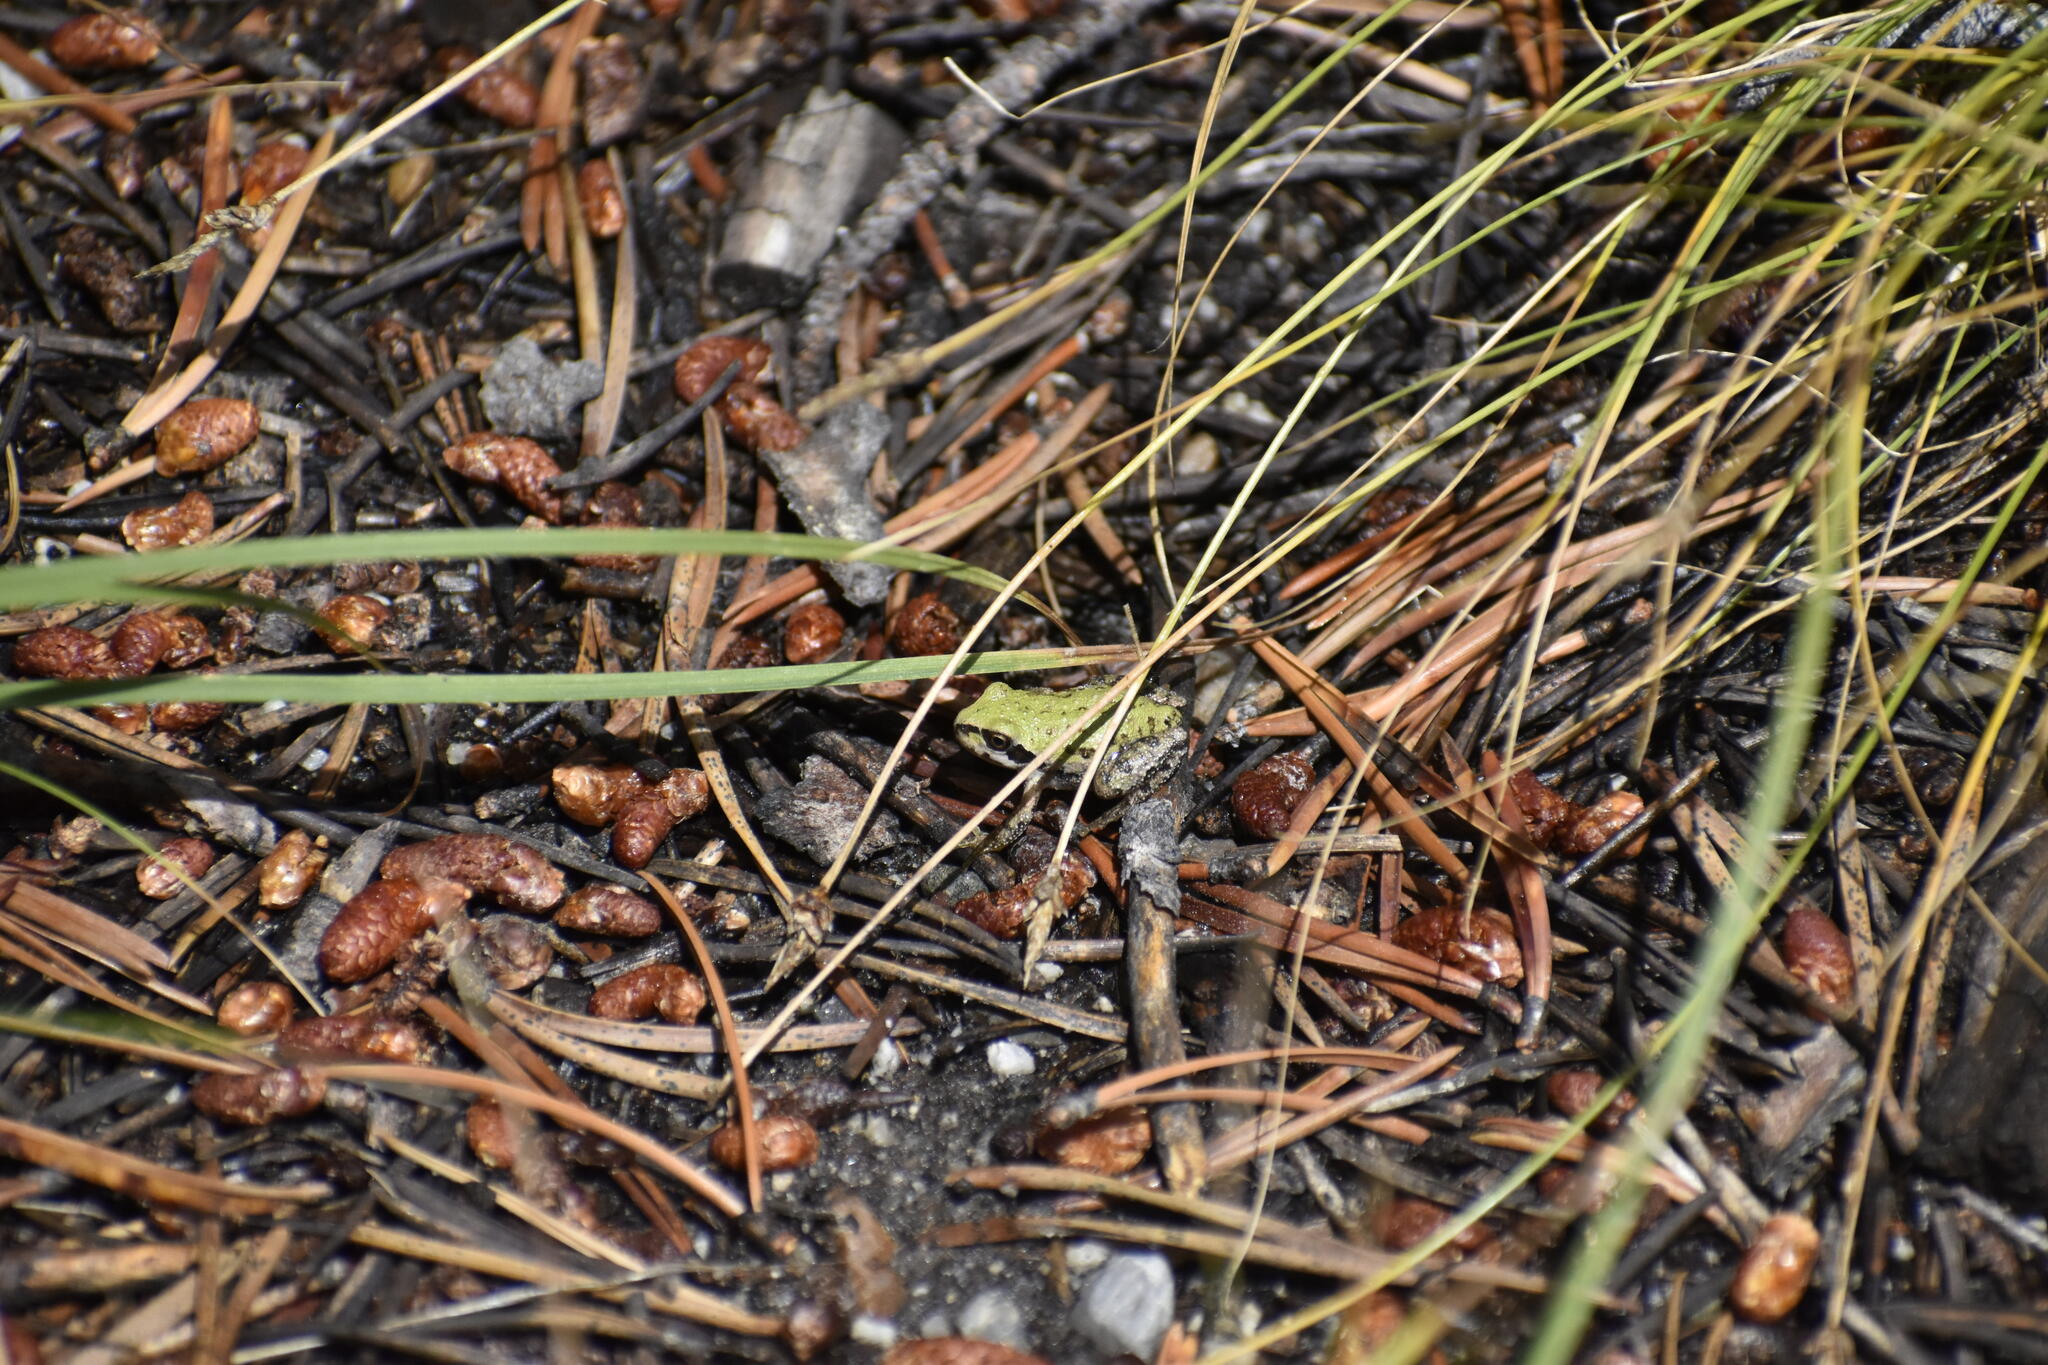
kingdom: Animalia
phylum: Chordata
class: Amphibia
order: Anura
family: Hylidae
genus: Pseudacris
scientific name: Pseudacris regilla
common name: Pacific chorus frog
